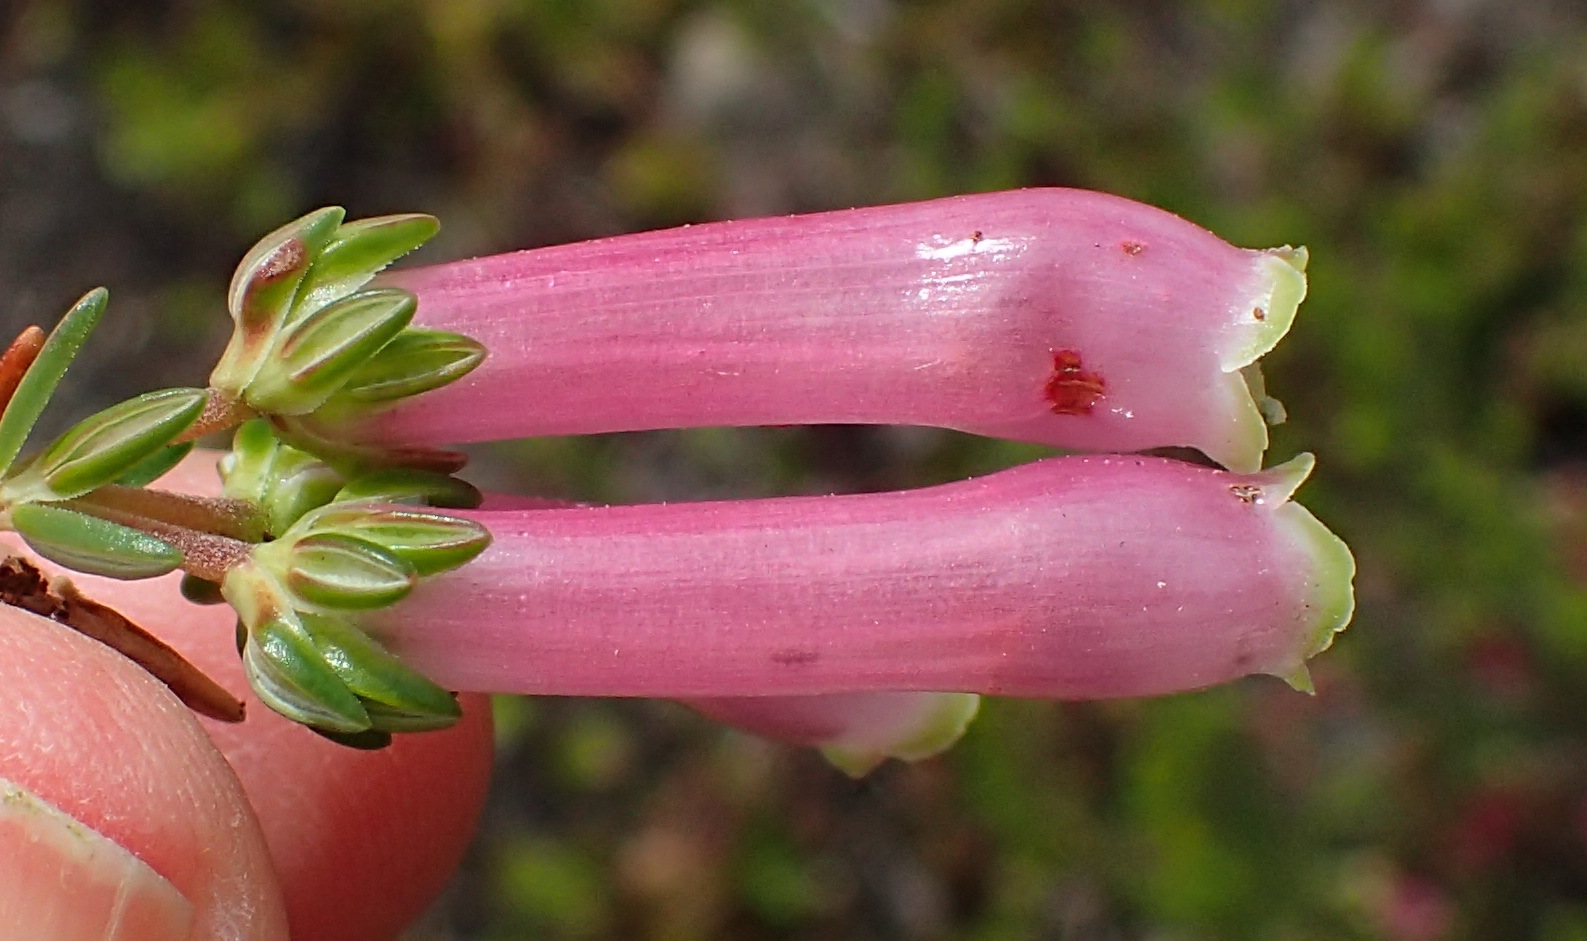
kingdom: Plantae
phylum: Tracheophyta
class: Magnoliopsida
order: Ericales
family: Ericaceae
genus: Erica
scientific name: Erica diaphana
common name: Heath
